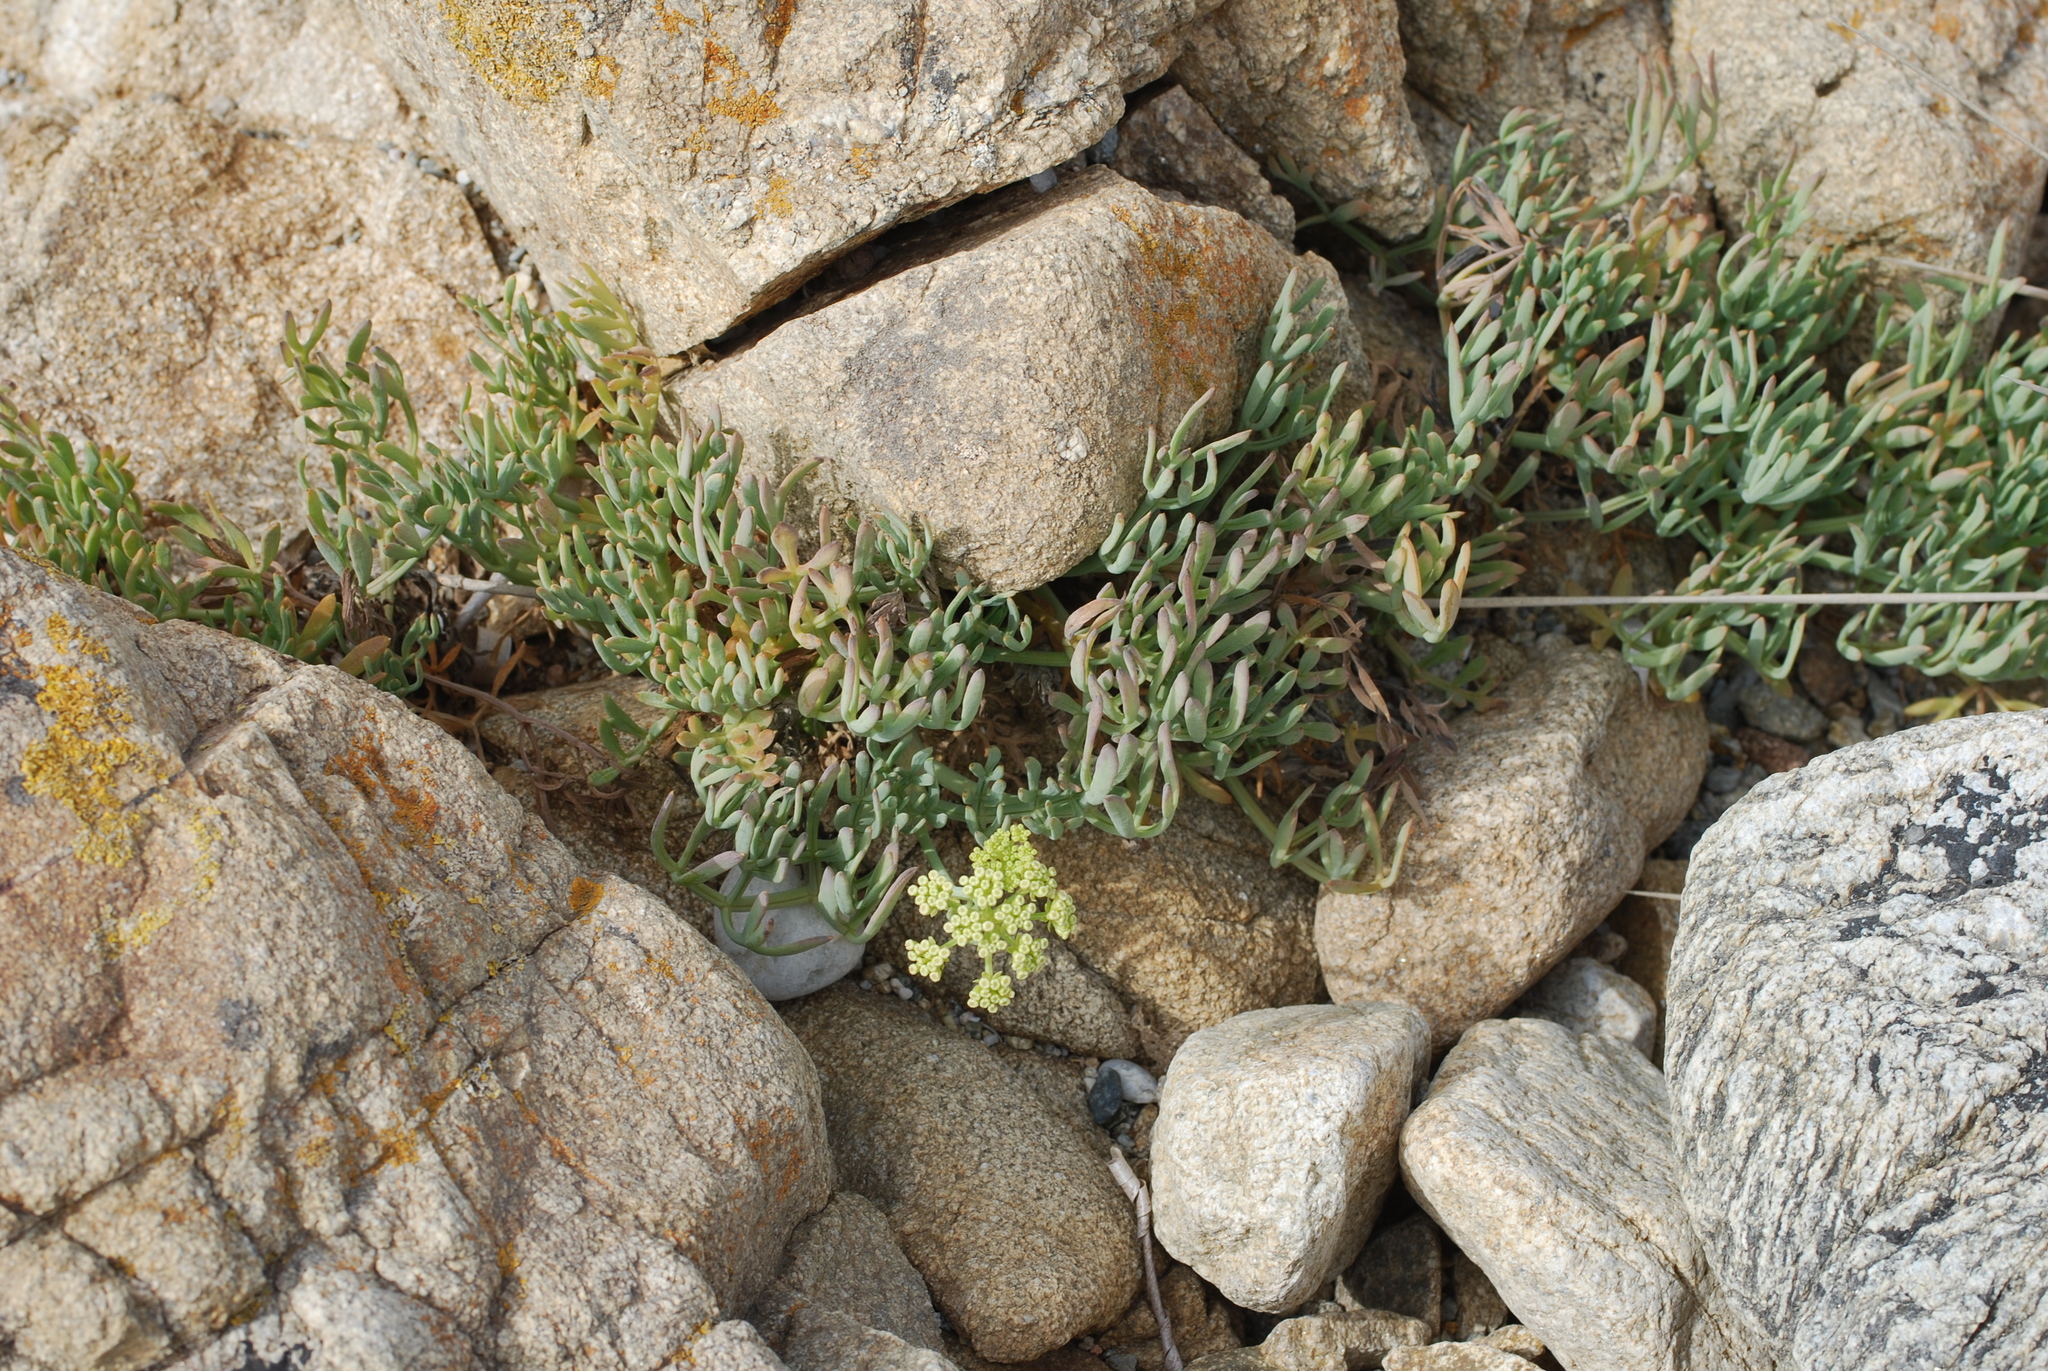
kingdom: Plantae
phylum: Tracheophyta
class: Magnoliopsida
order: Apiales
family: Apiaceae
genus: Crithmum
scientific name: Crithmum maritimum
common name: Rock samphire
